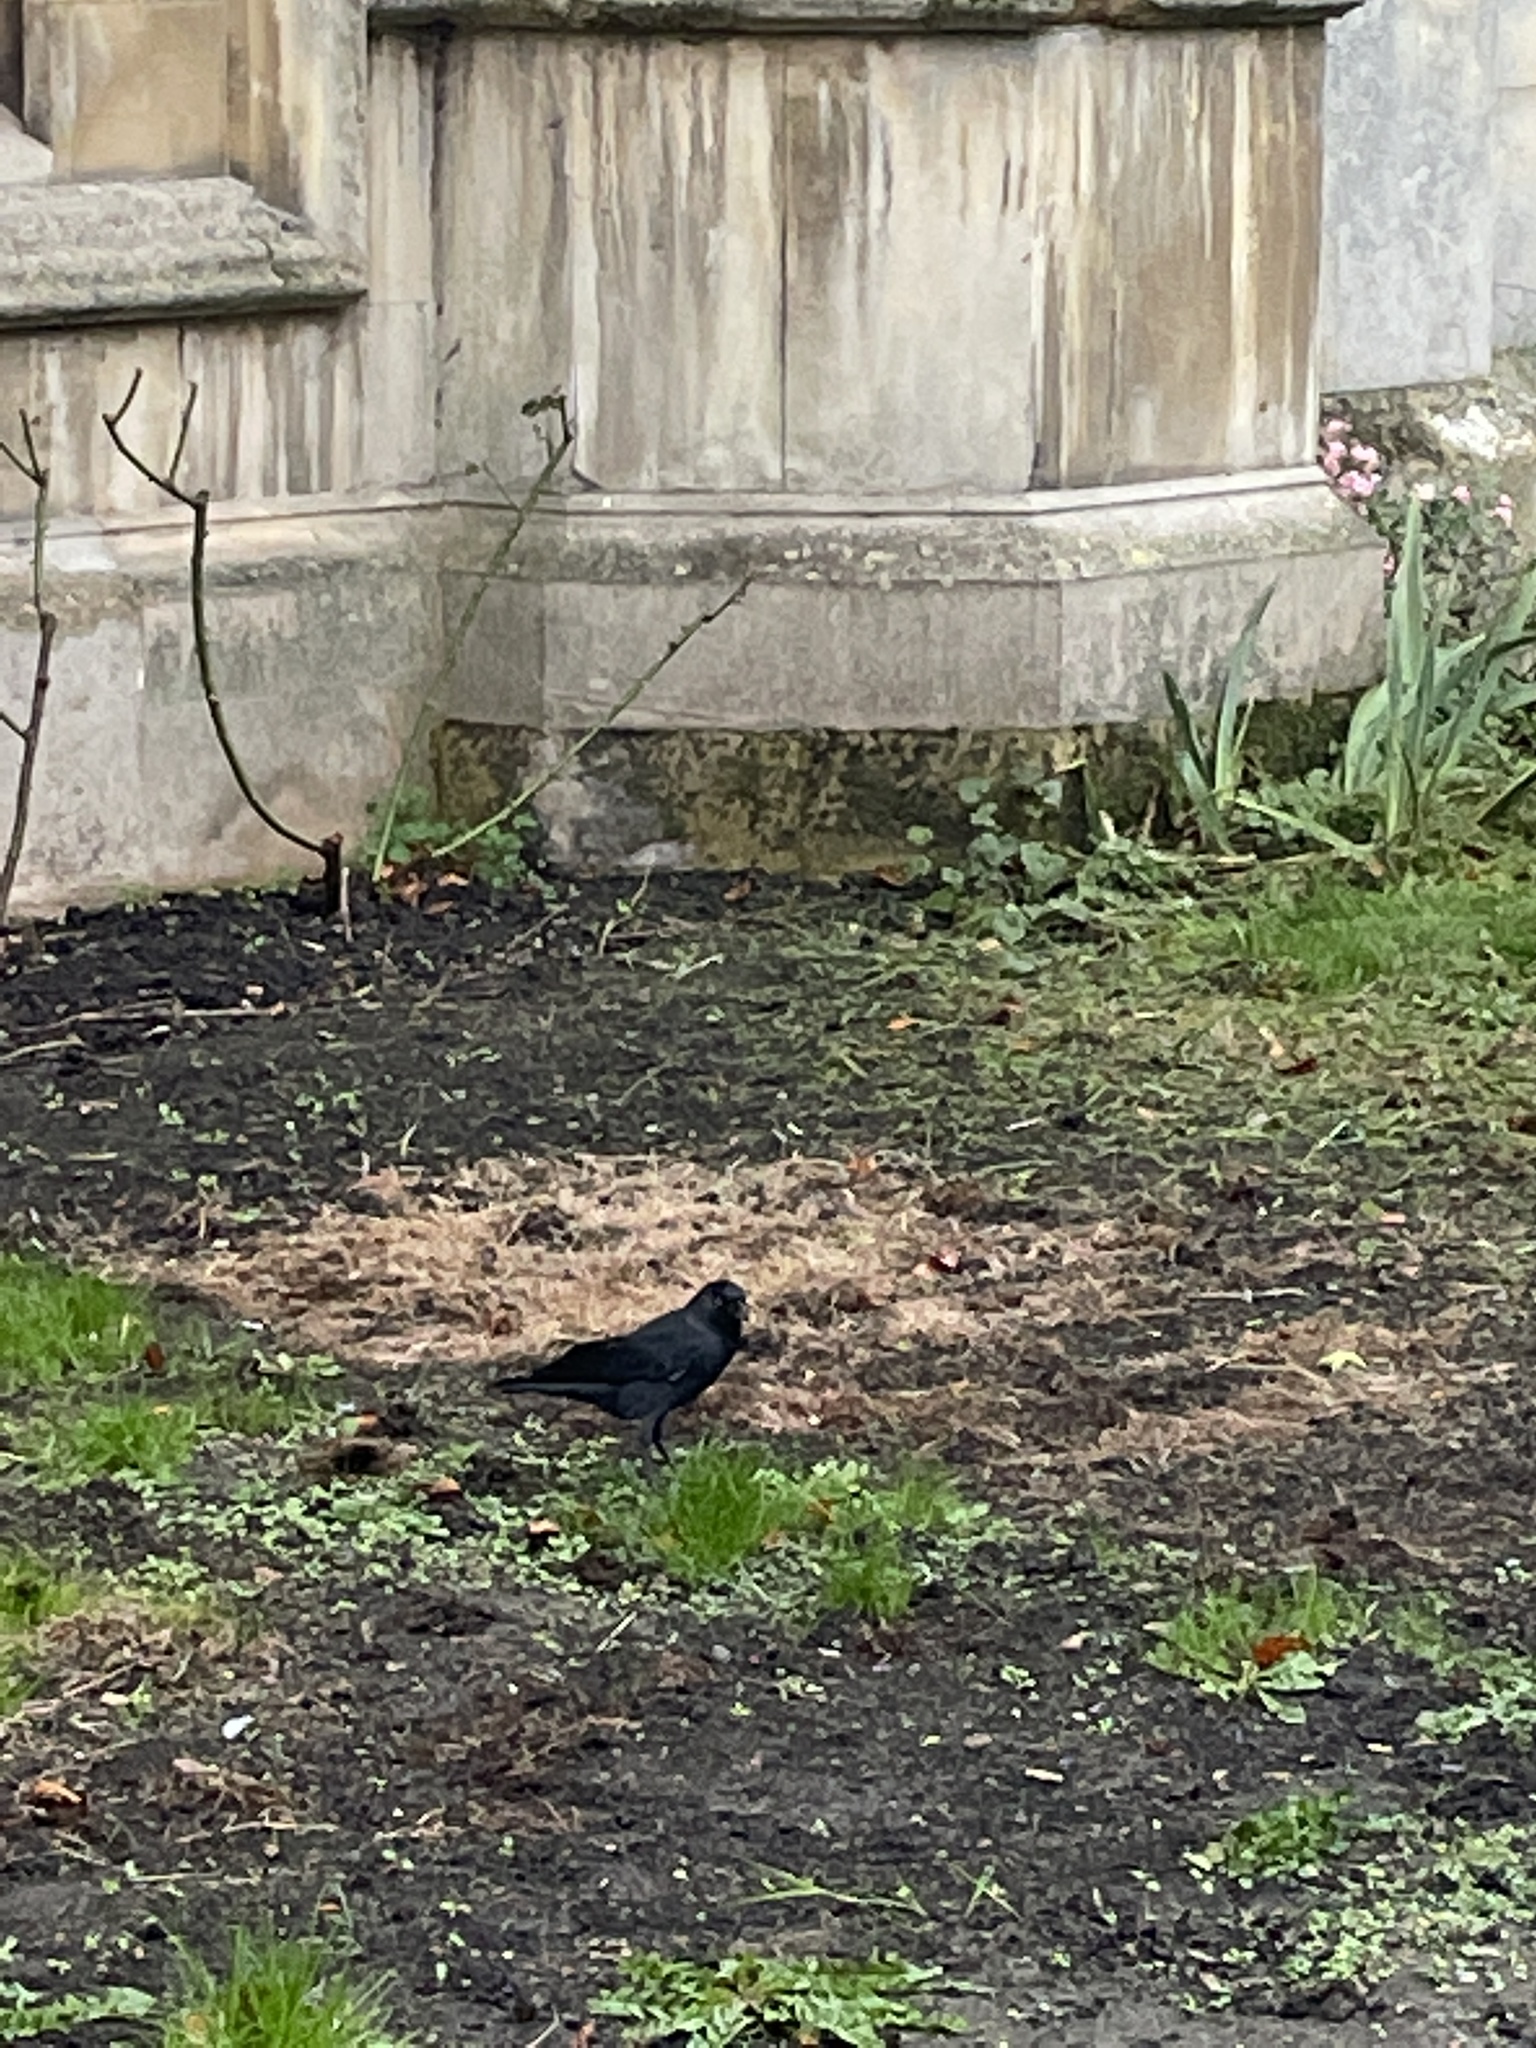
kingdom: Animalia
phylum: Chordata
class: Aves
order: Passeriformes
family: Corvidae
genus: Coloeus
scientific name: Coloeus monedula
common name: Western jackdaw
